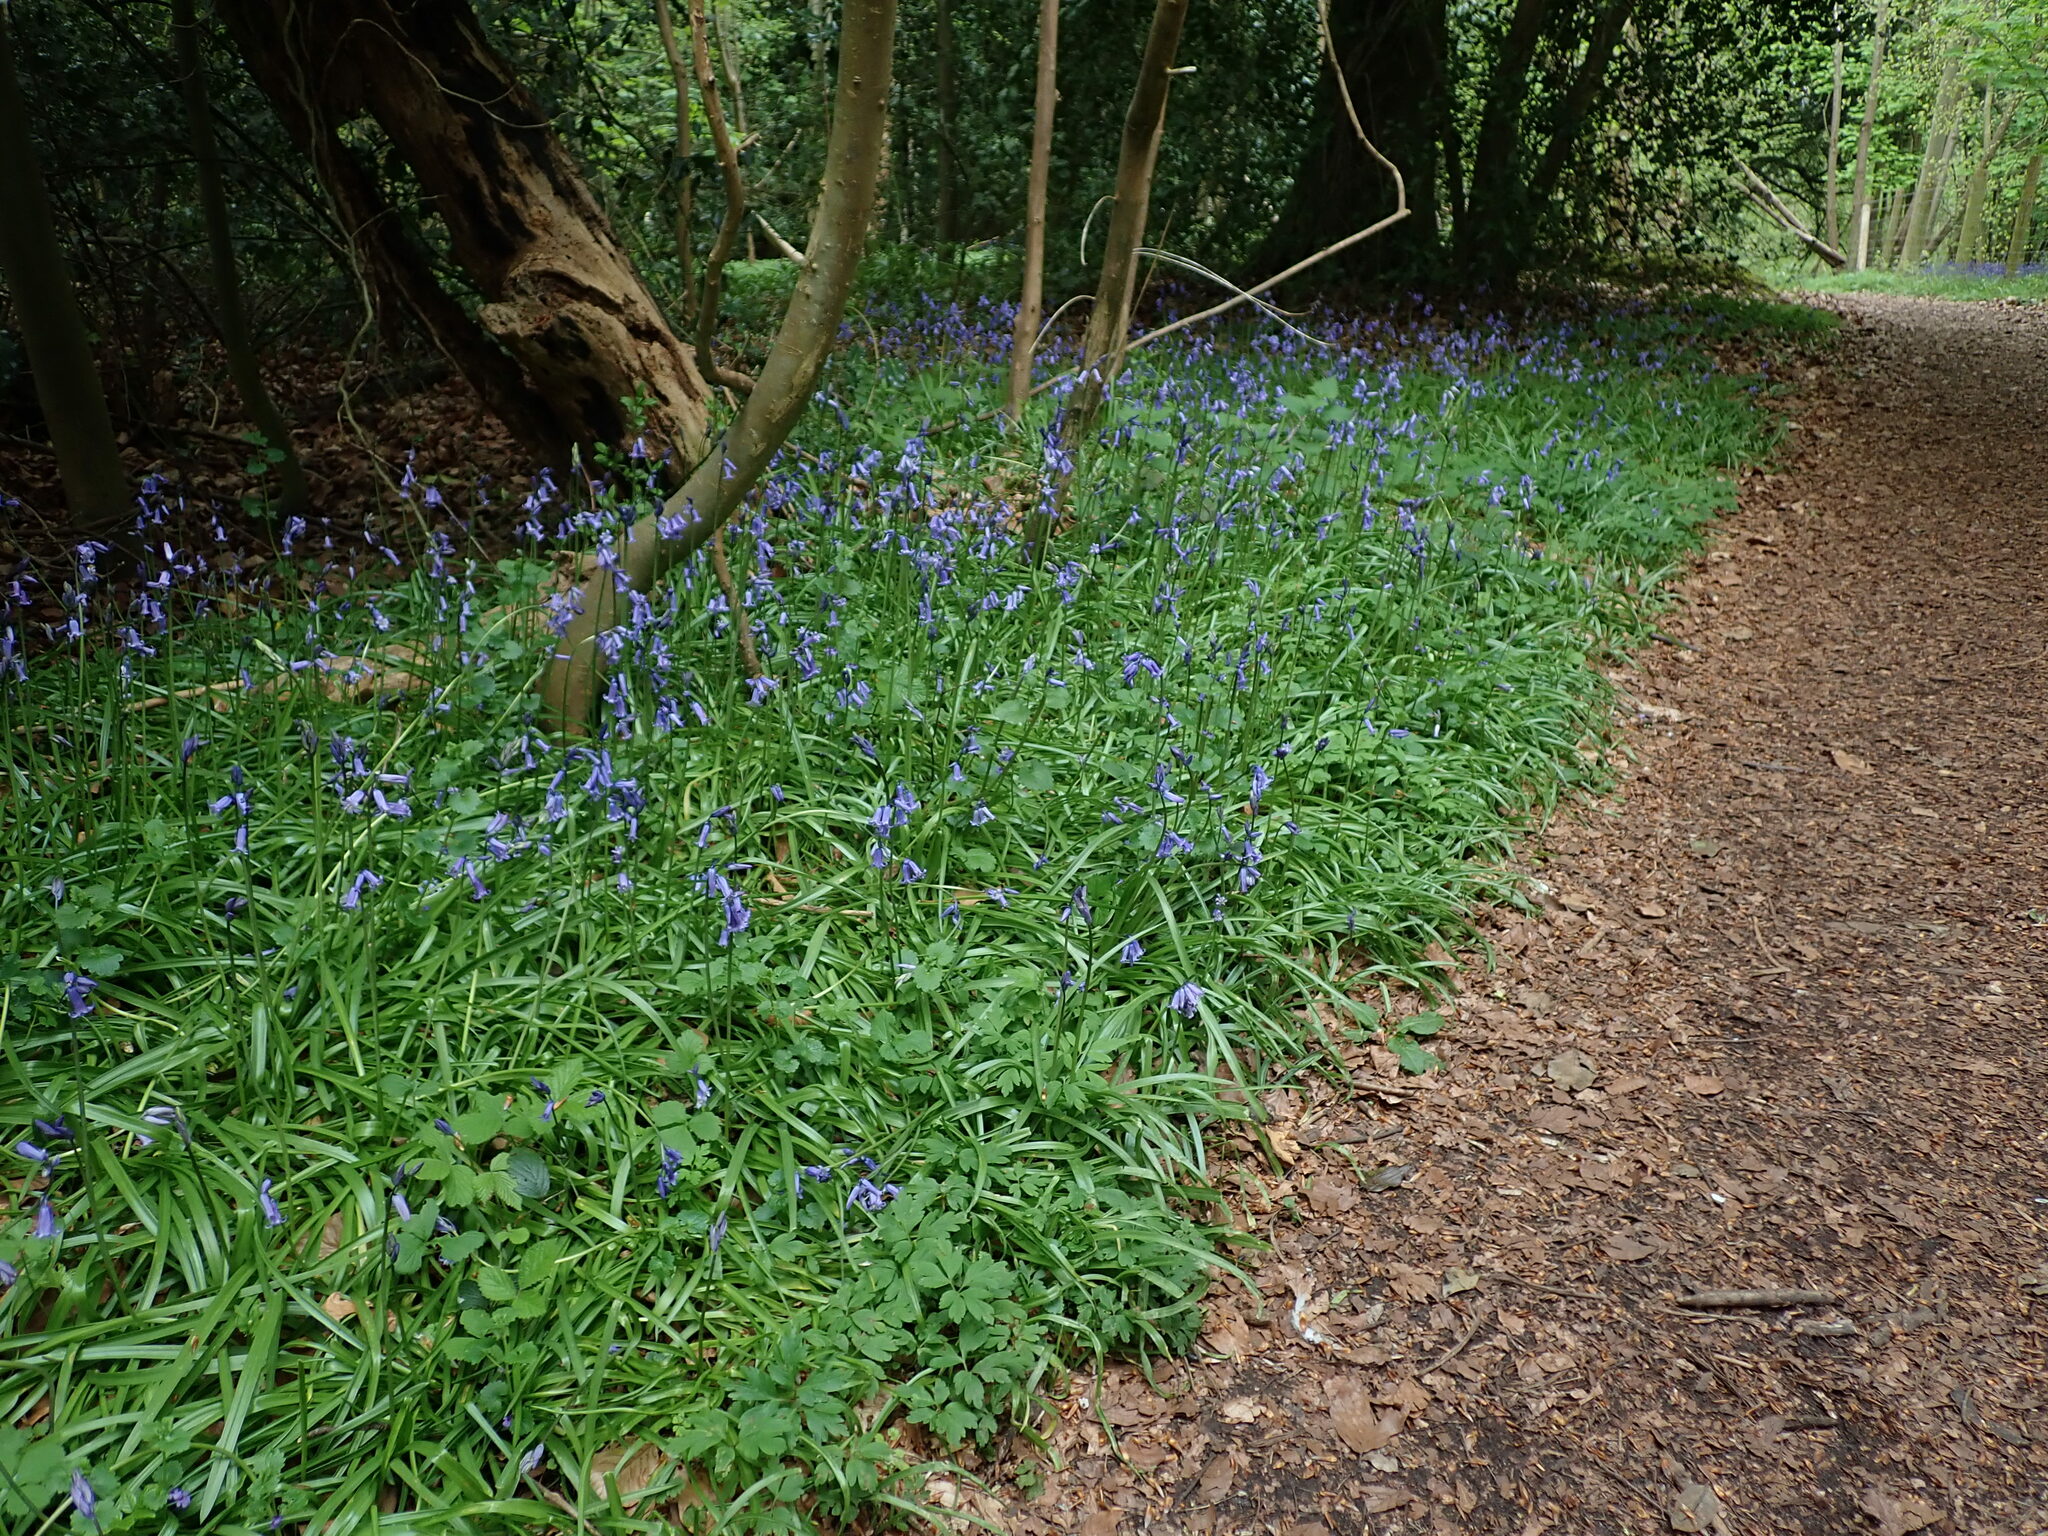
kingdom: Plantae
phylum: Tracheophyta
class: Liliopsida
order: Asparagales
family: Asparagaceae
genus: Hyacinthoides
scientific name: Hyacinthoides massartiana
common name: Hyacinthoides
